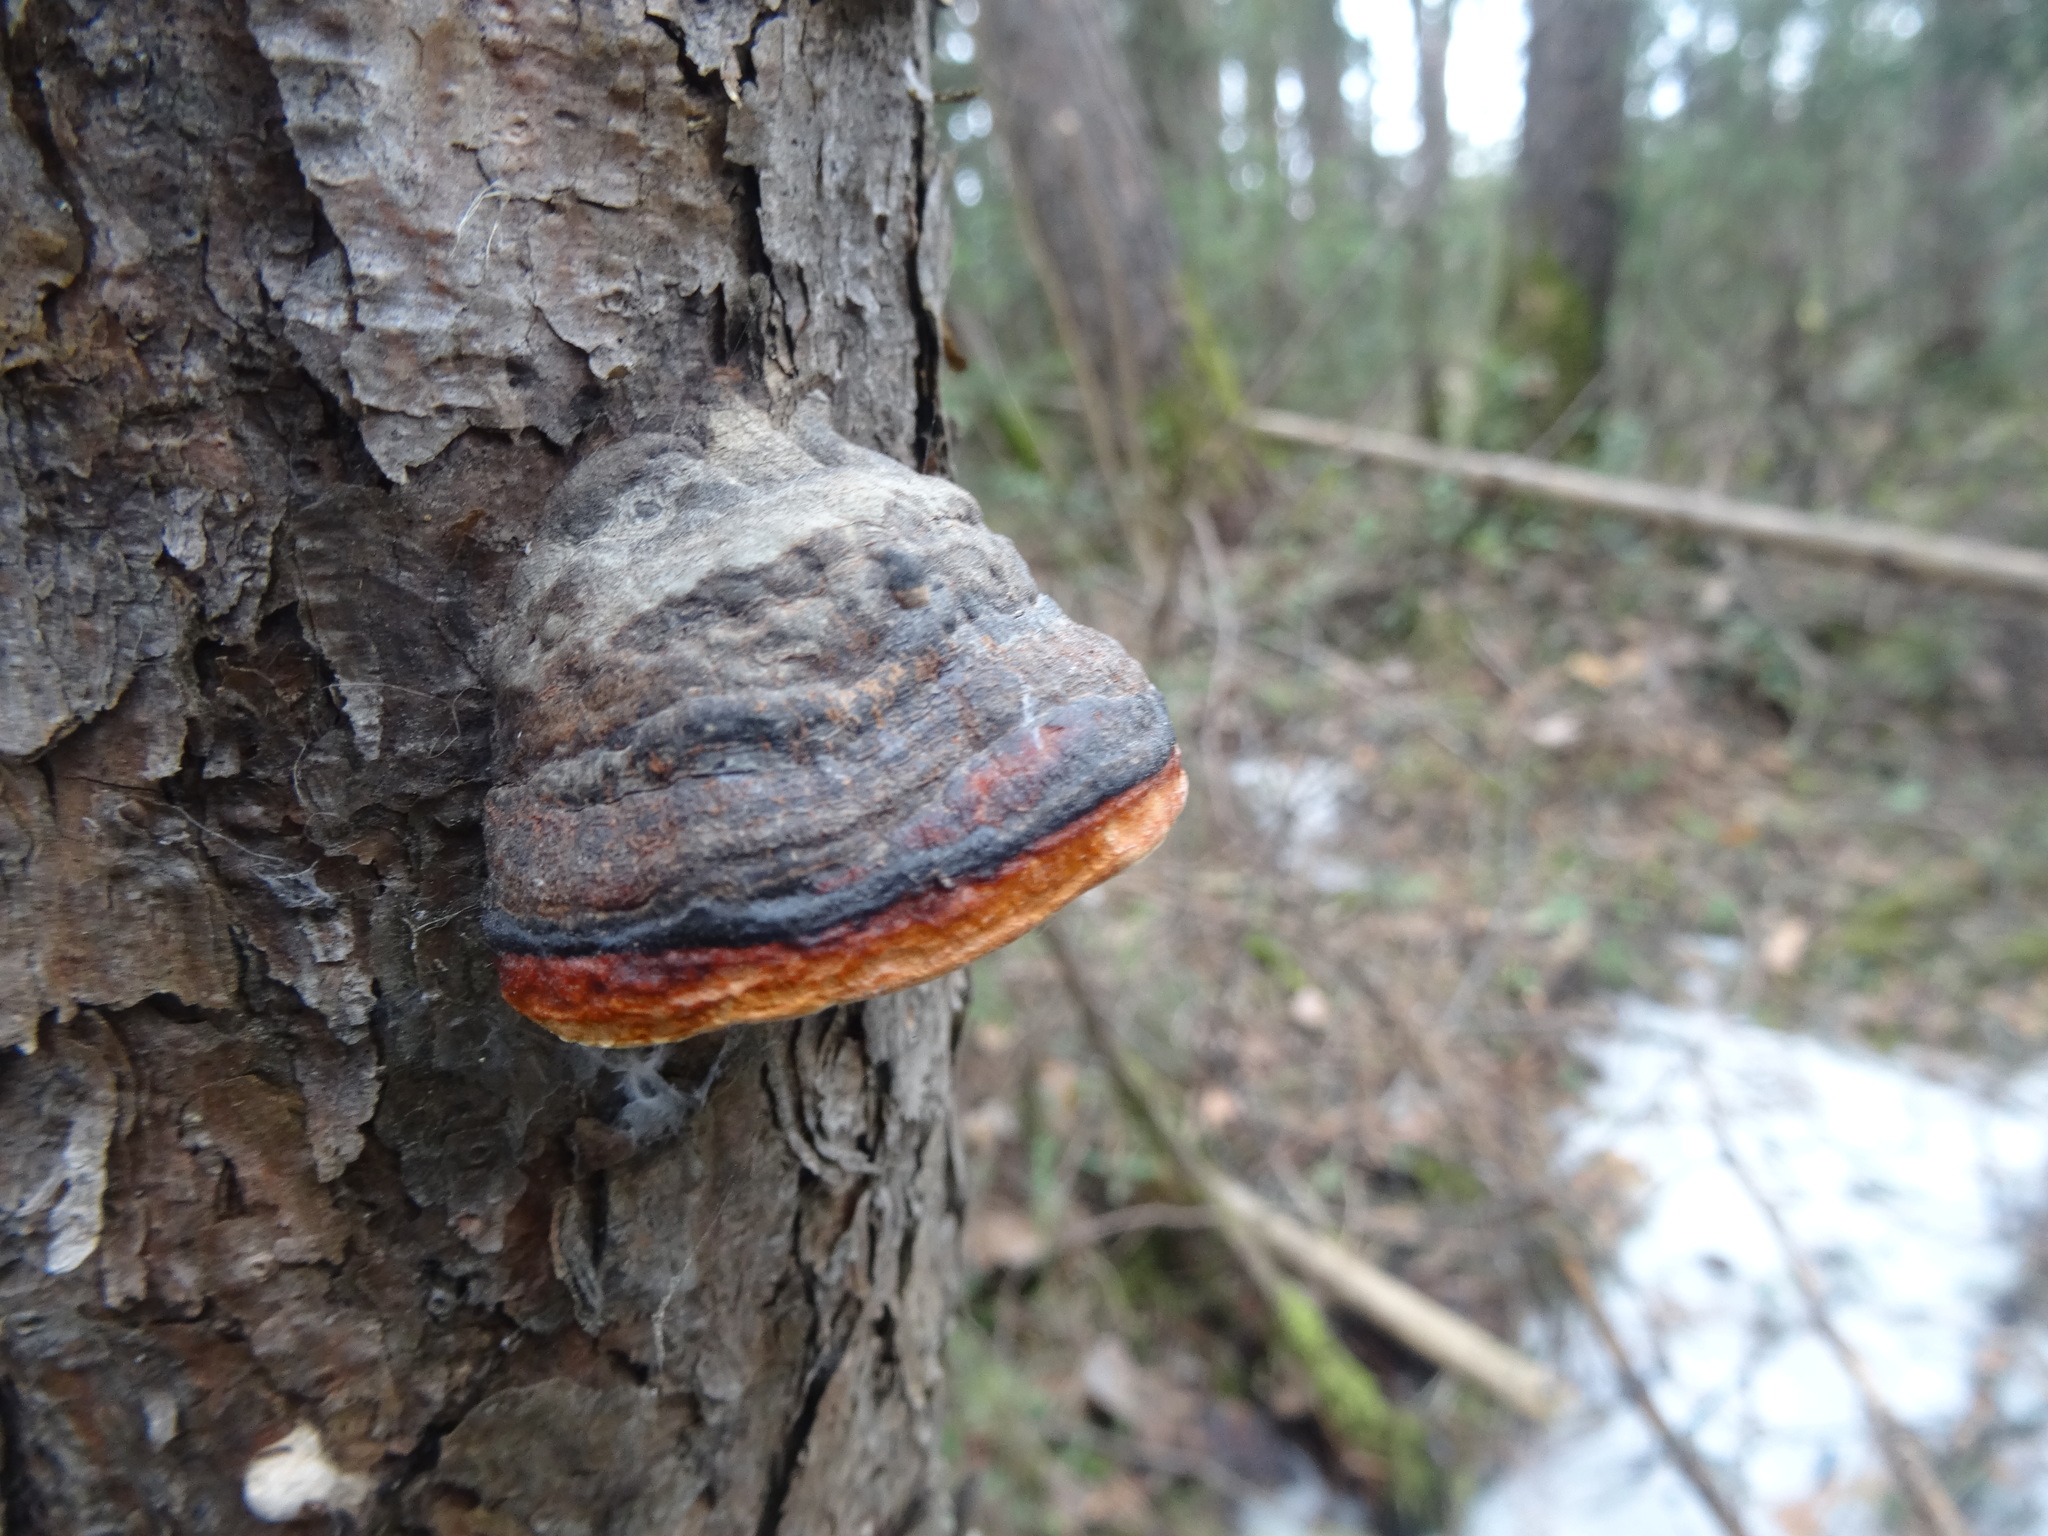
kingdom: Fungi
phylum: Basidiomycota
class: Agaricomycetes
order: Polyporales
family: Fomitopsidaceae
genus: Fomitopsis
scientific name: Fomitopsis pinicola
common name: Red-belted bracket
